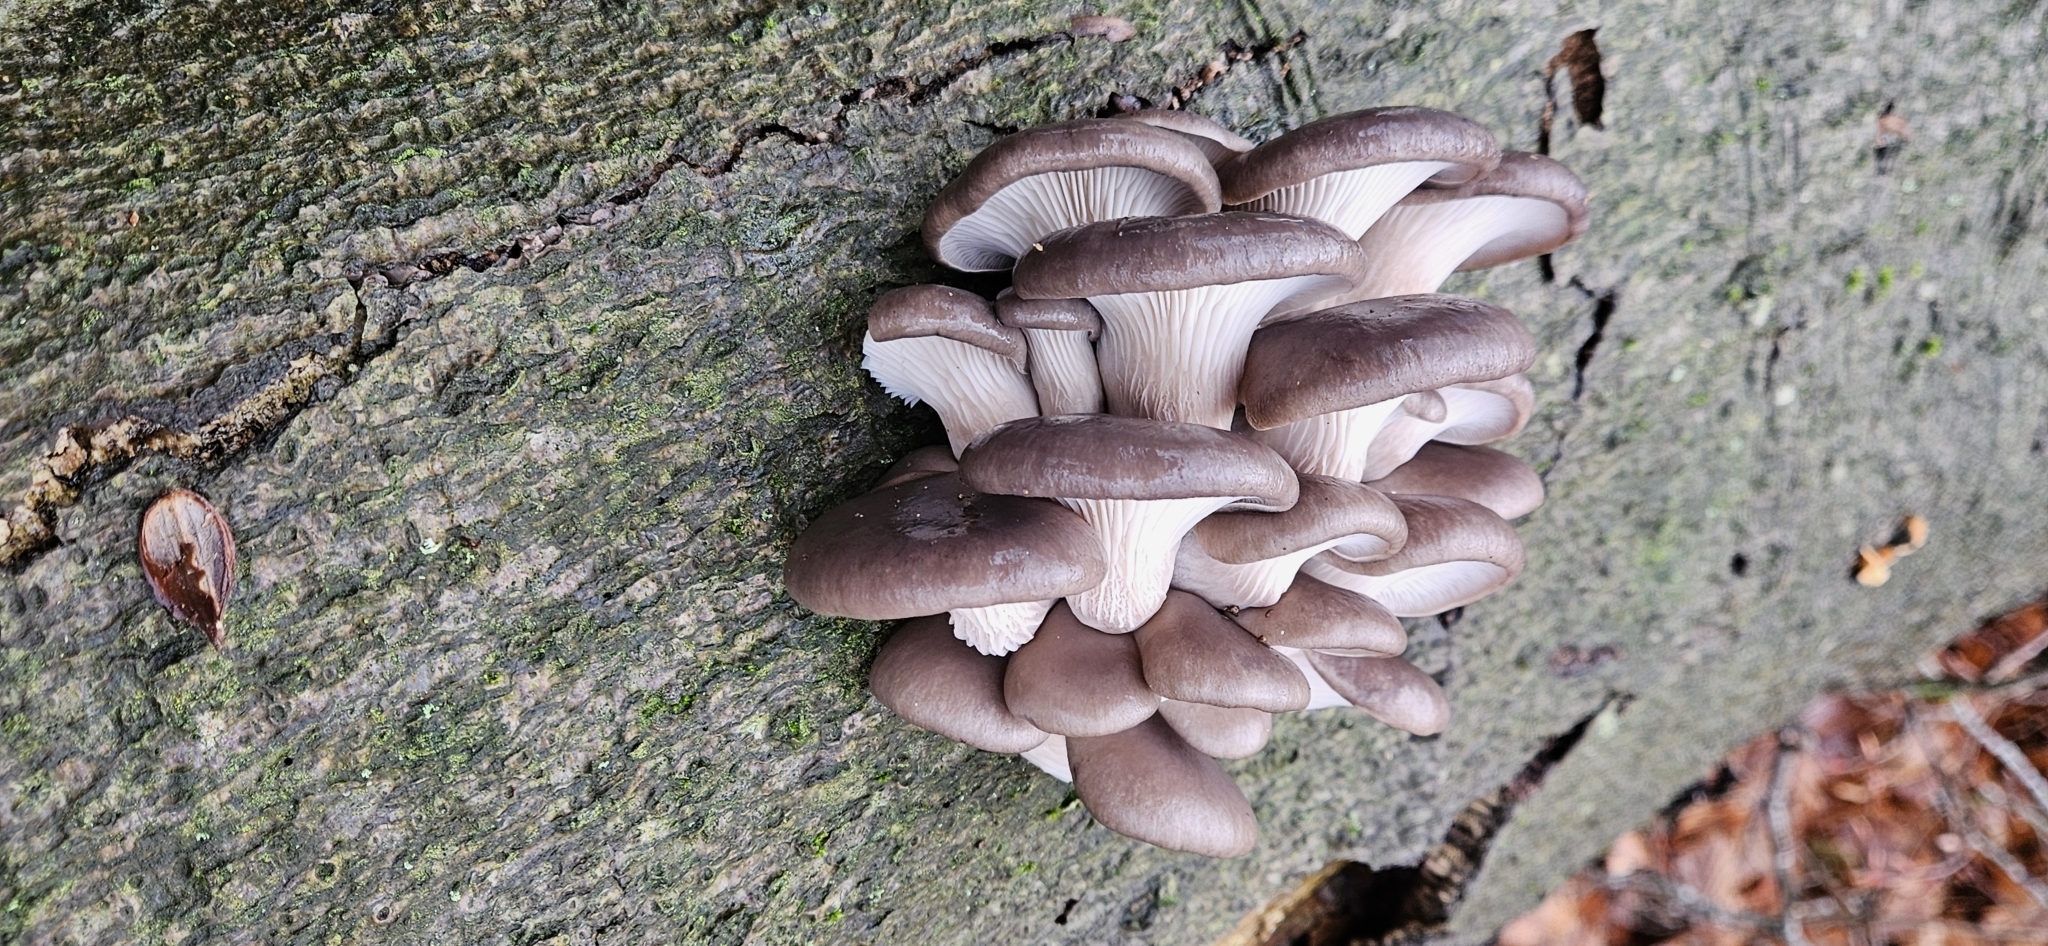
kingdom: Fungi
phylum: Basidiomycota
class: Agaricomycetes
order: Agaricales
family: Pleurotaceae
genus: Pleurotus
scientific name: Pleurotus ostreatus
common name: Oyster mushroom
